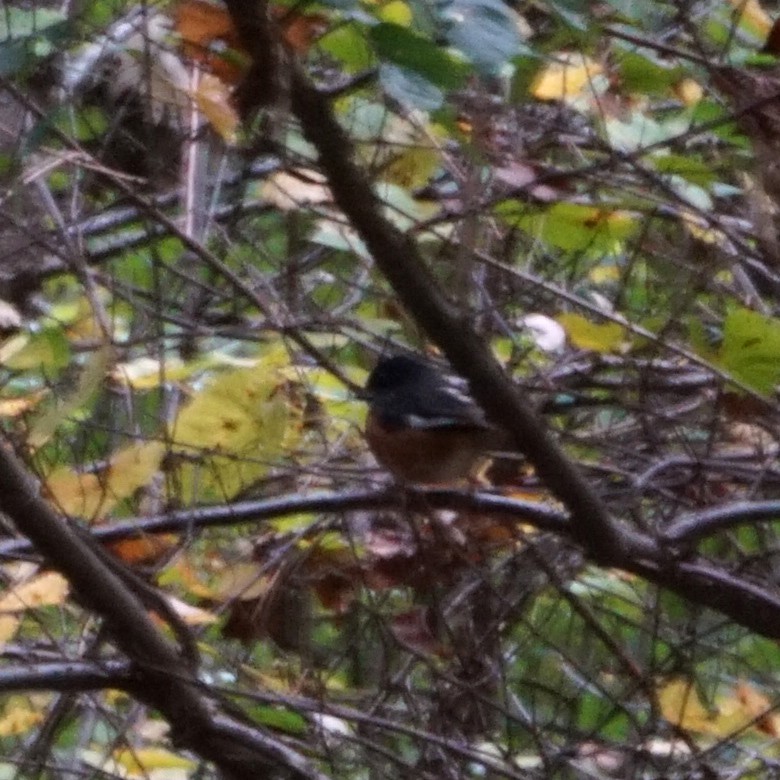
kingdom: Animalia
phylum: Chordata
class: Aves
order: Passeriformes
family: Passerellidae
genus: Pipilo
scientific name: Pipilo erythrophthalmus
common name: Eastern towhee
